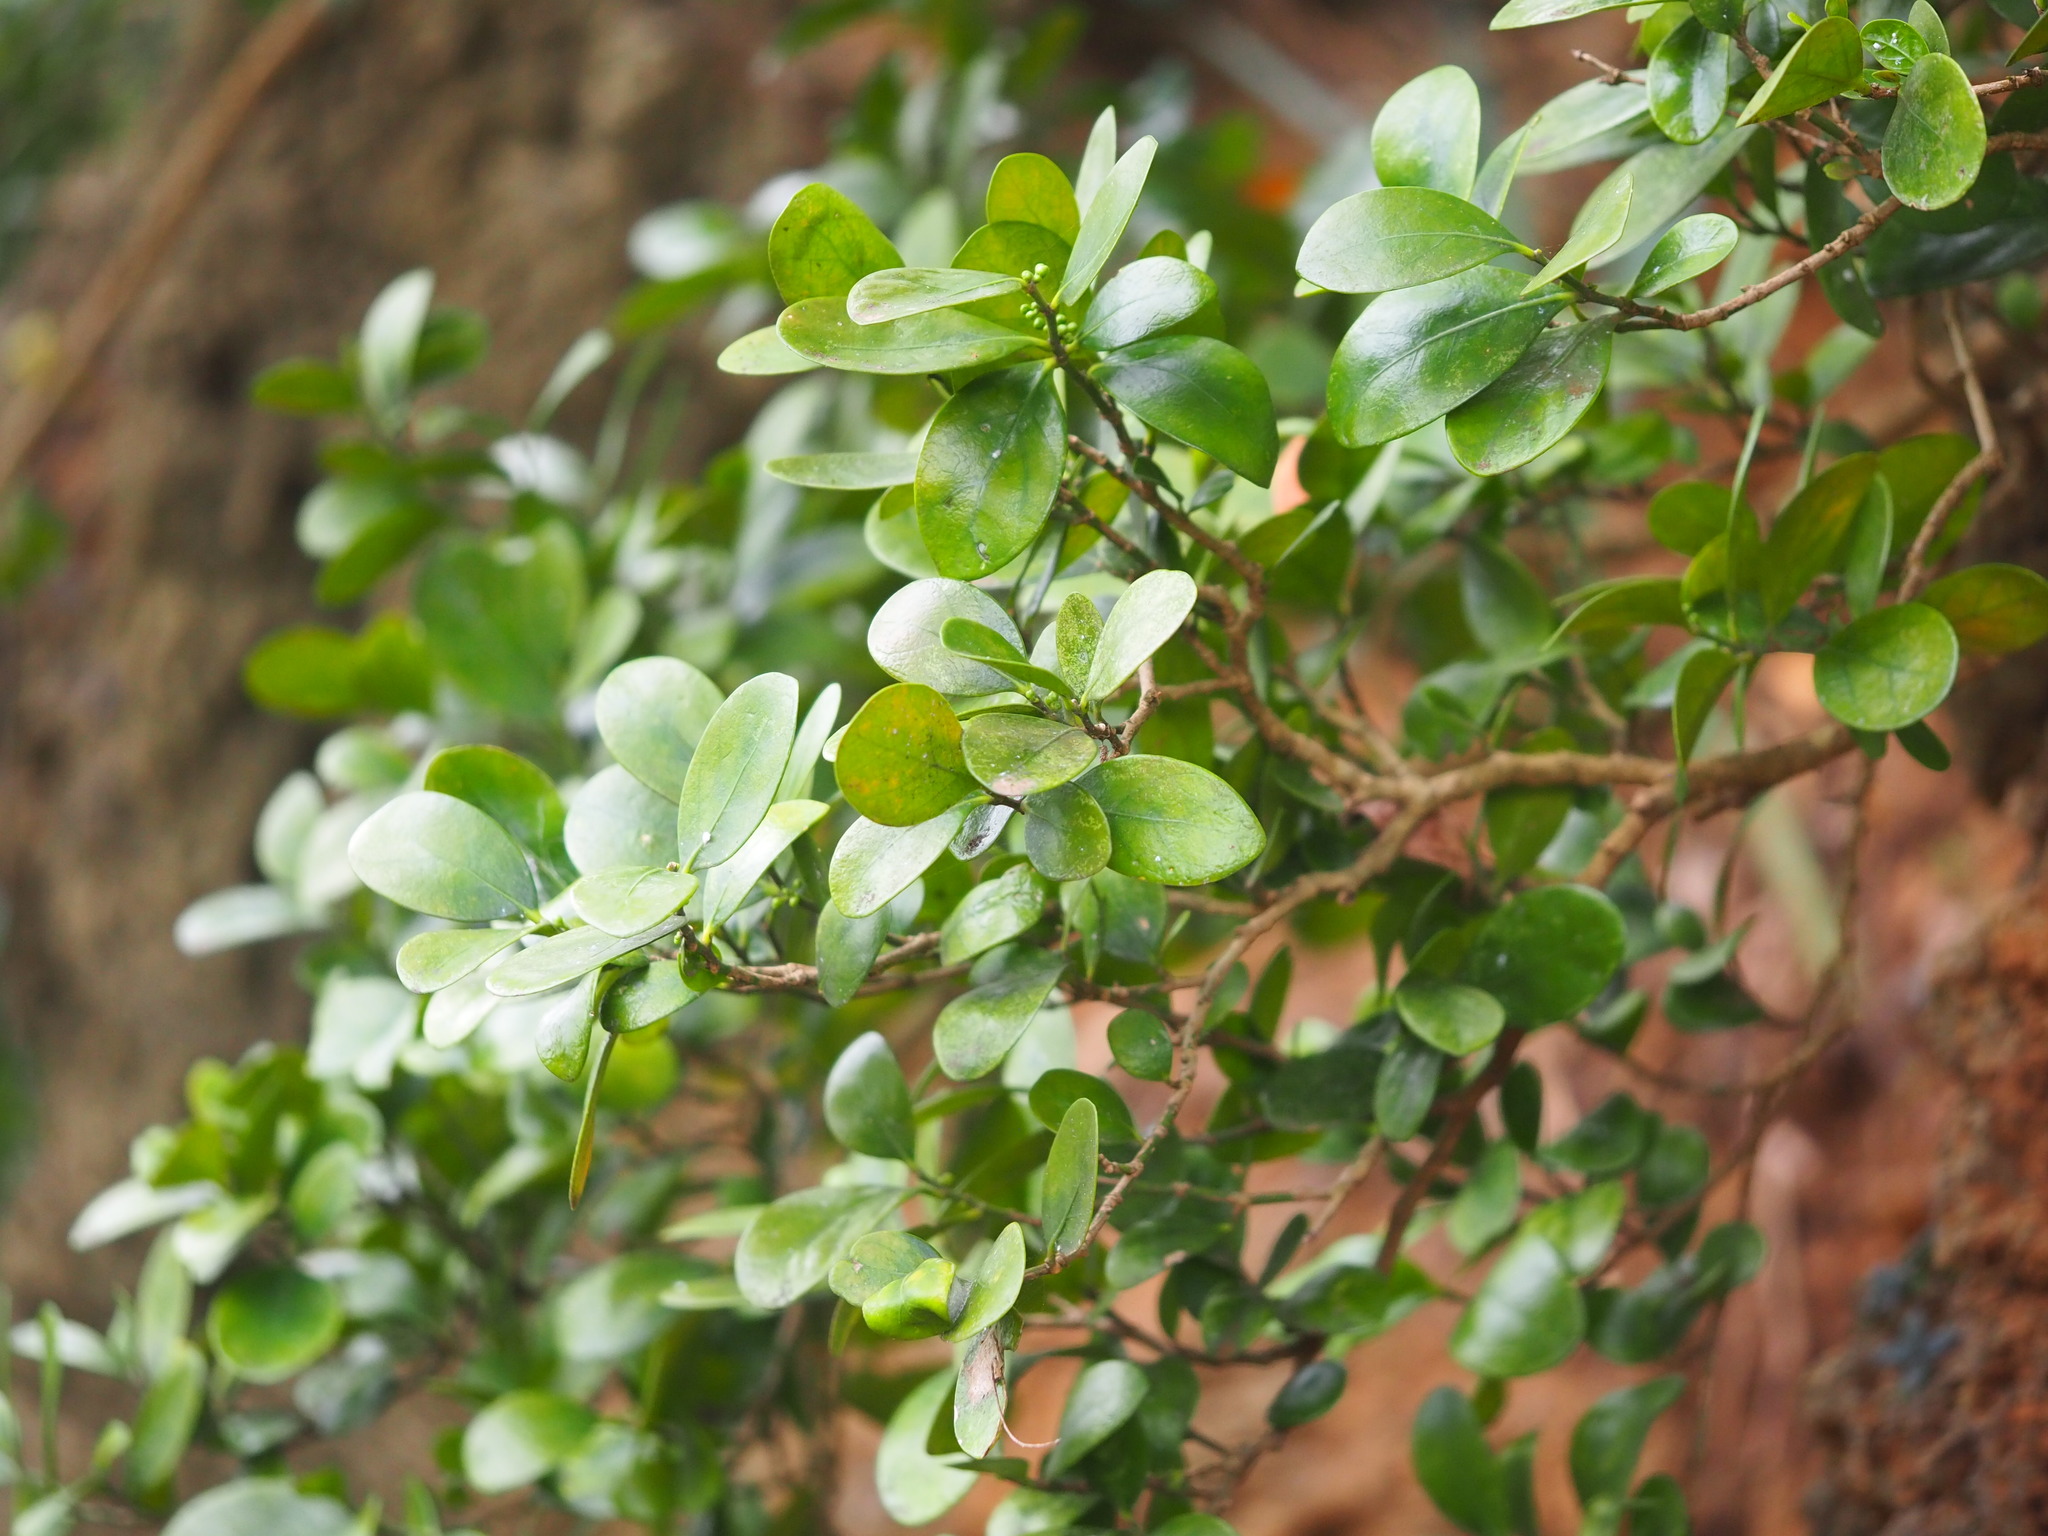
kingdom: Plantae
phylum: Tracheophyta
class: Magnoliopsida
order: Malpighiales
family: Euphorbiaceae
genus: Suregada
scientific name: Suregada aequorea
